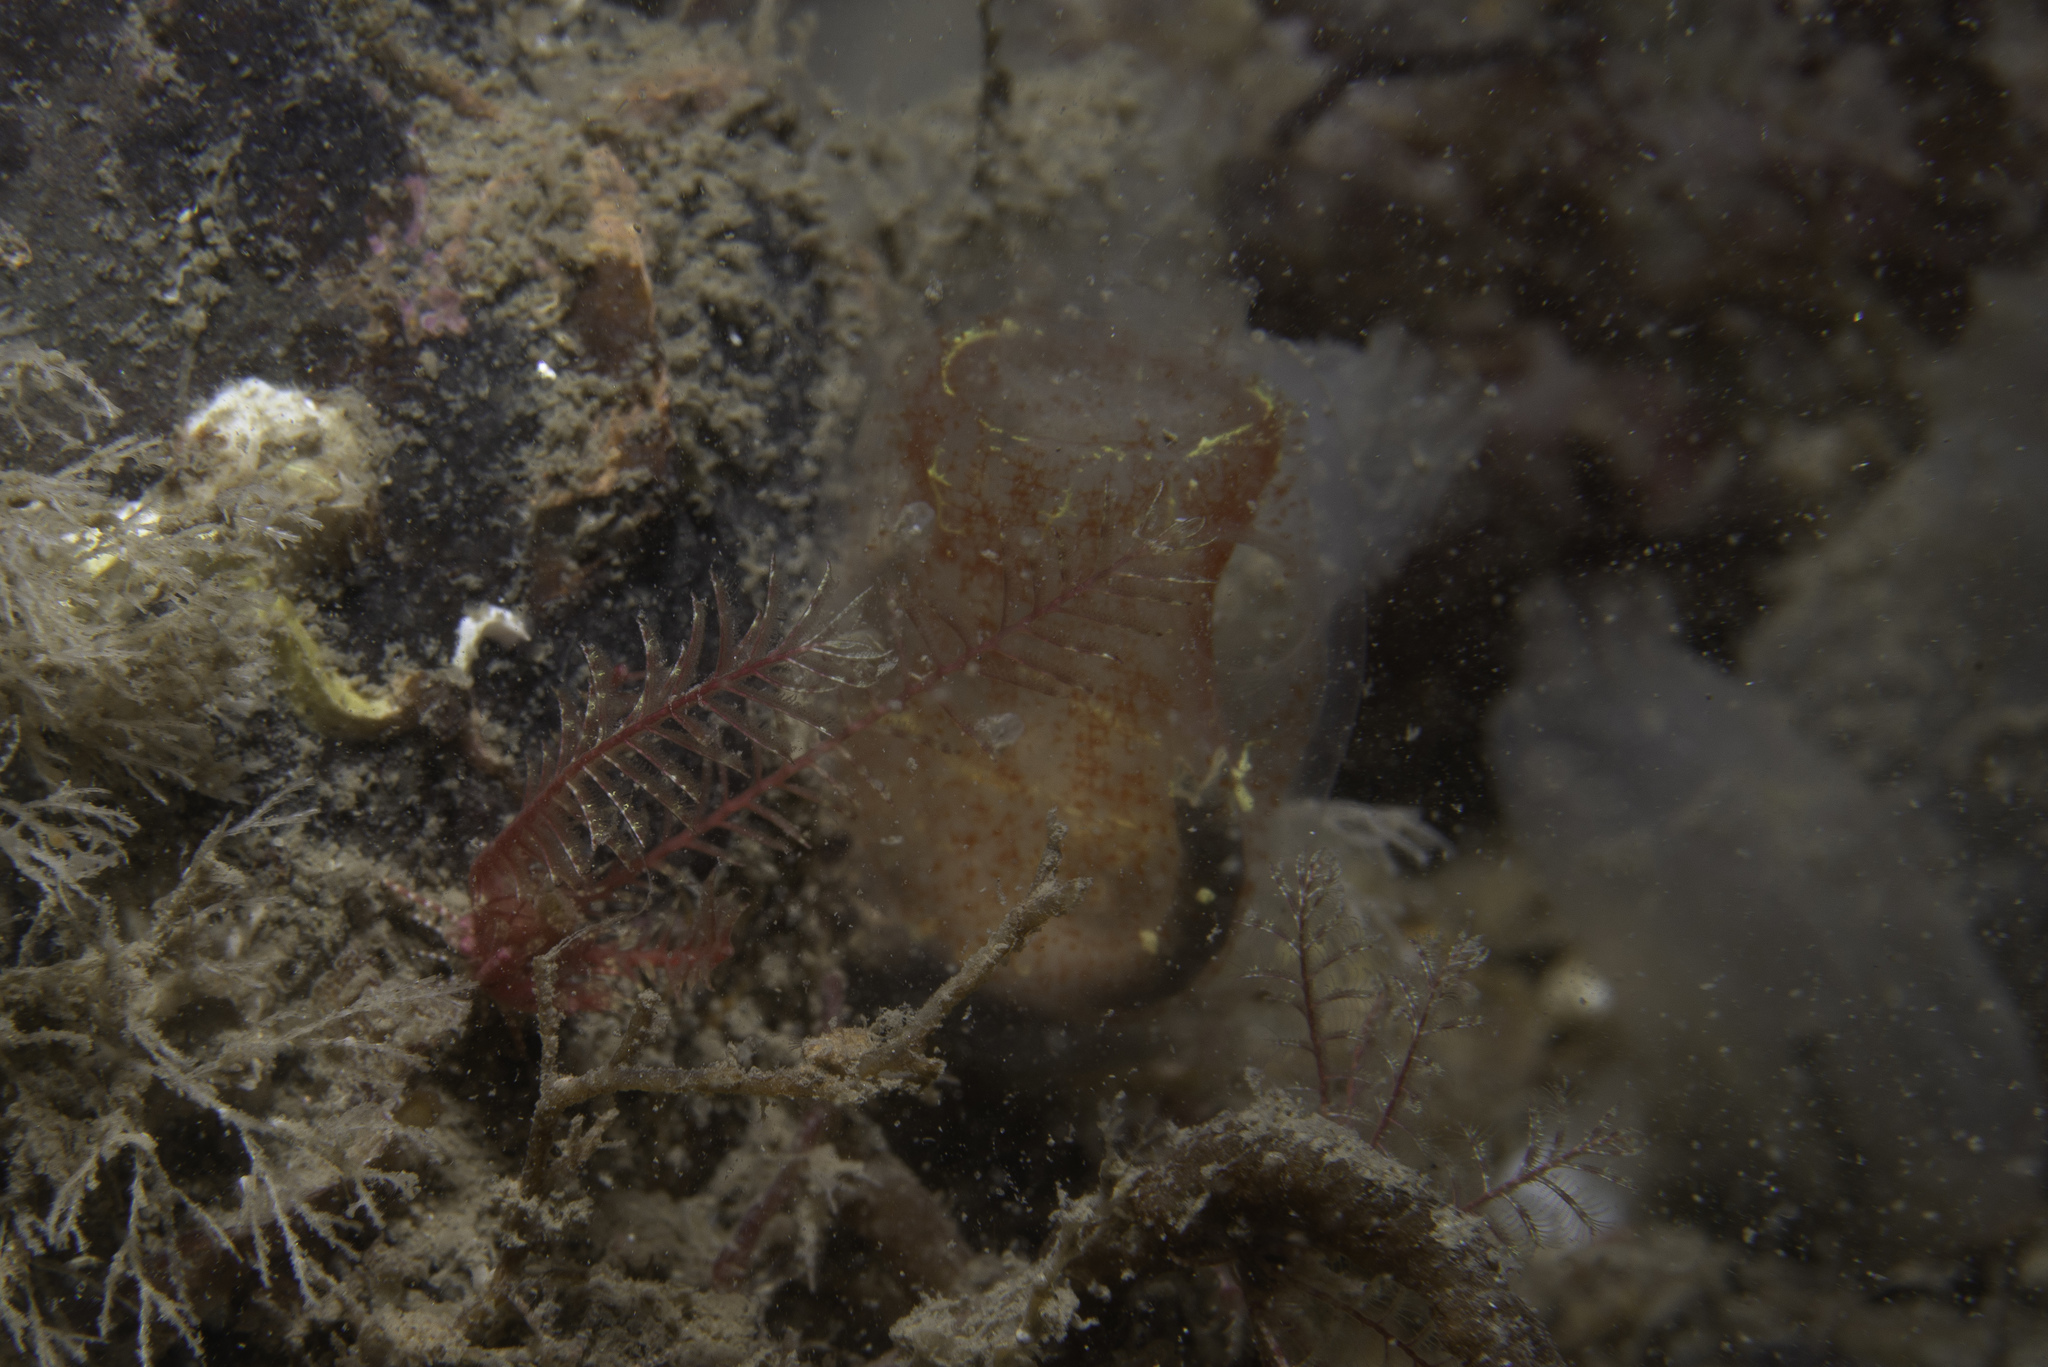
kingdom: Animalia
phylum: Chordata
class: Ascidiacea
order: Phlebobranchia
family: Corellidae
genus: Corella
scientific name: Corella parallelogramma
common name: Gas mantle ascidian
